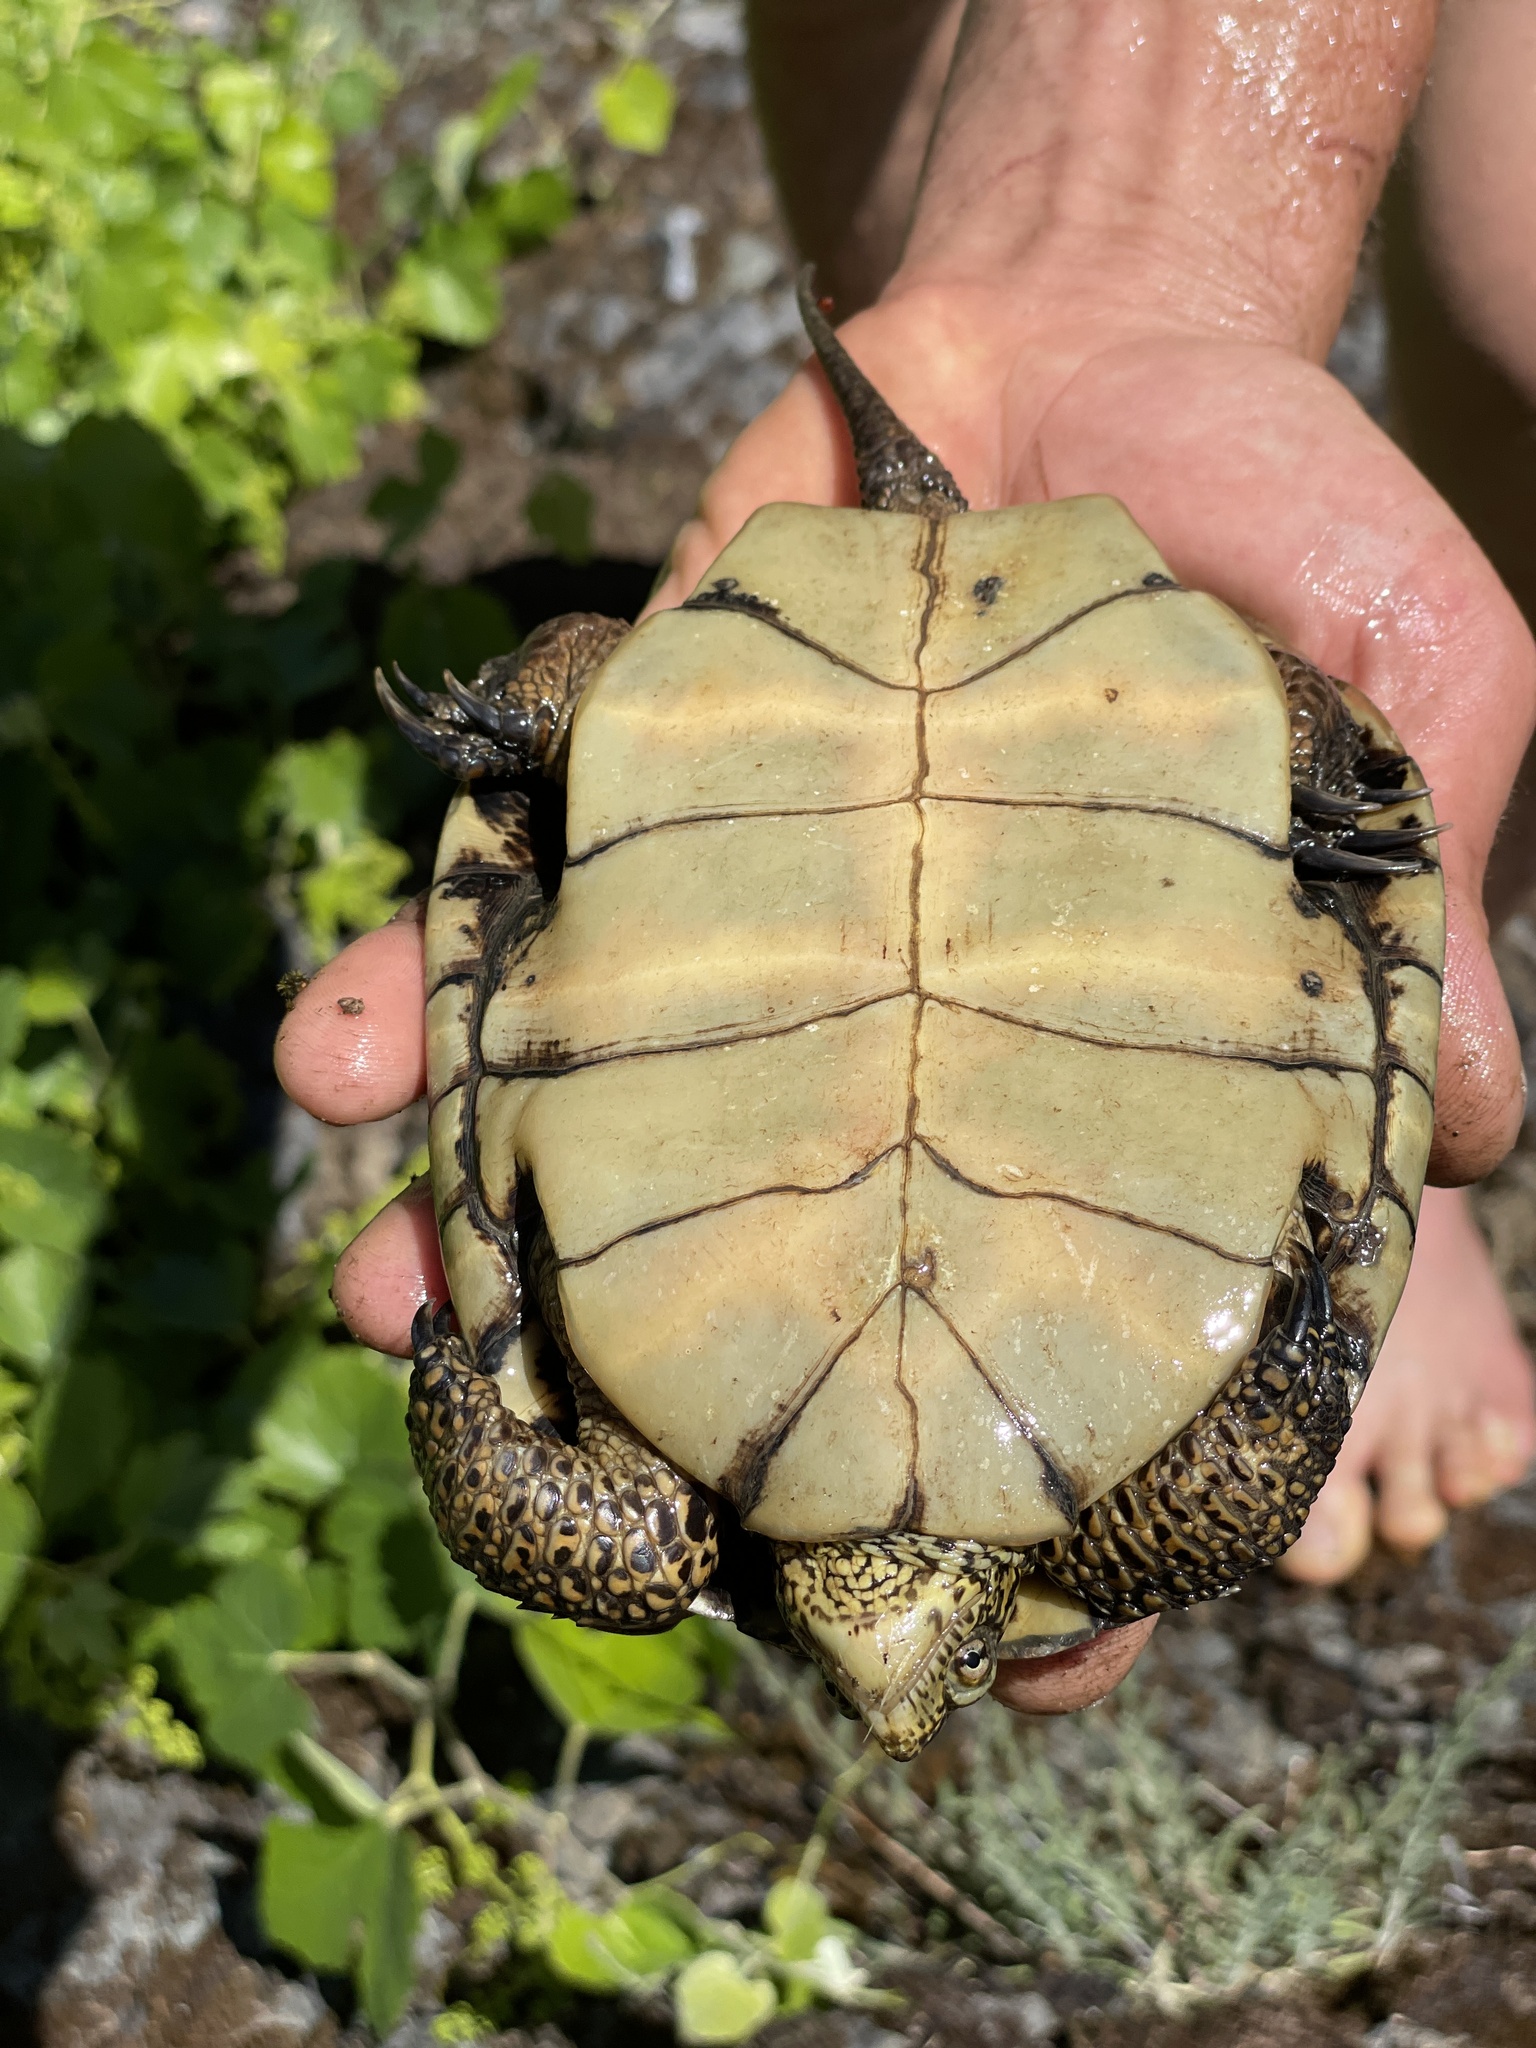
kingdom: Animalia
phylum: Chordata
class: Testudines
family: Emydidae
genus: Actinemys
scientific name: Actinemys marmorata
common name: Western pond turtle
